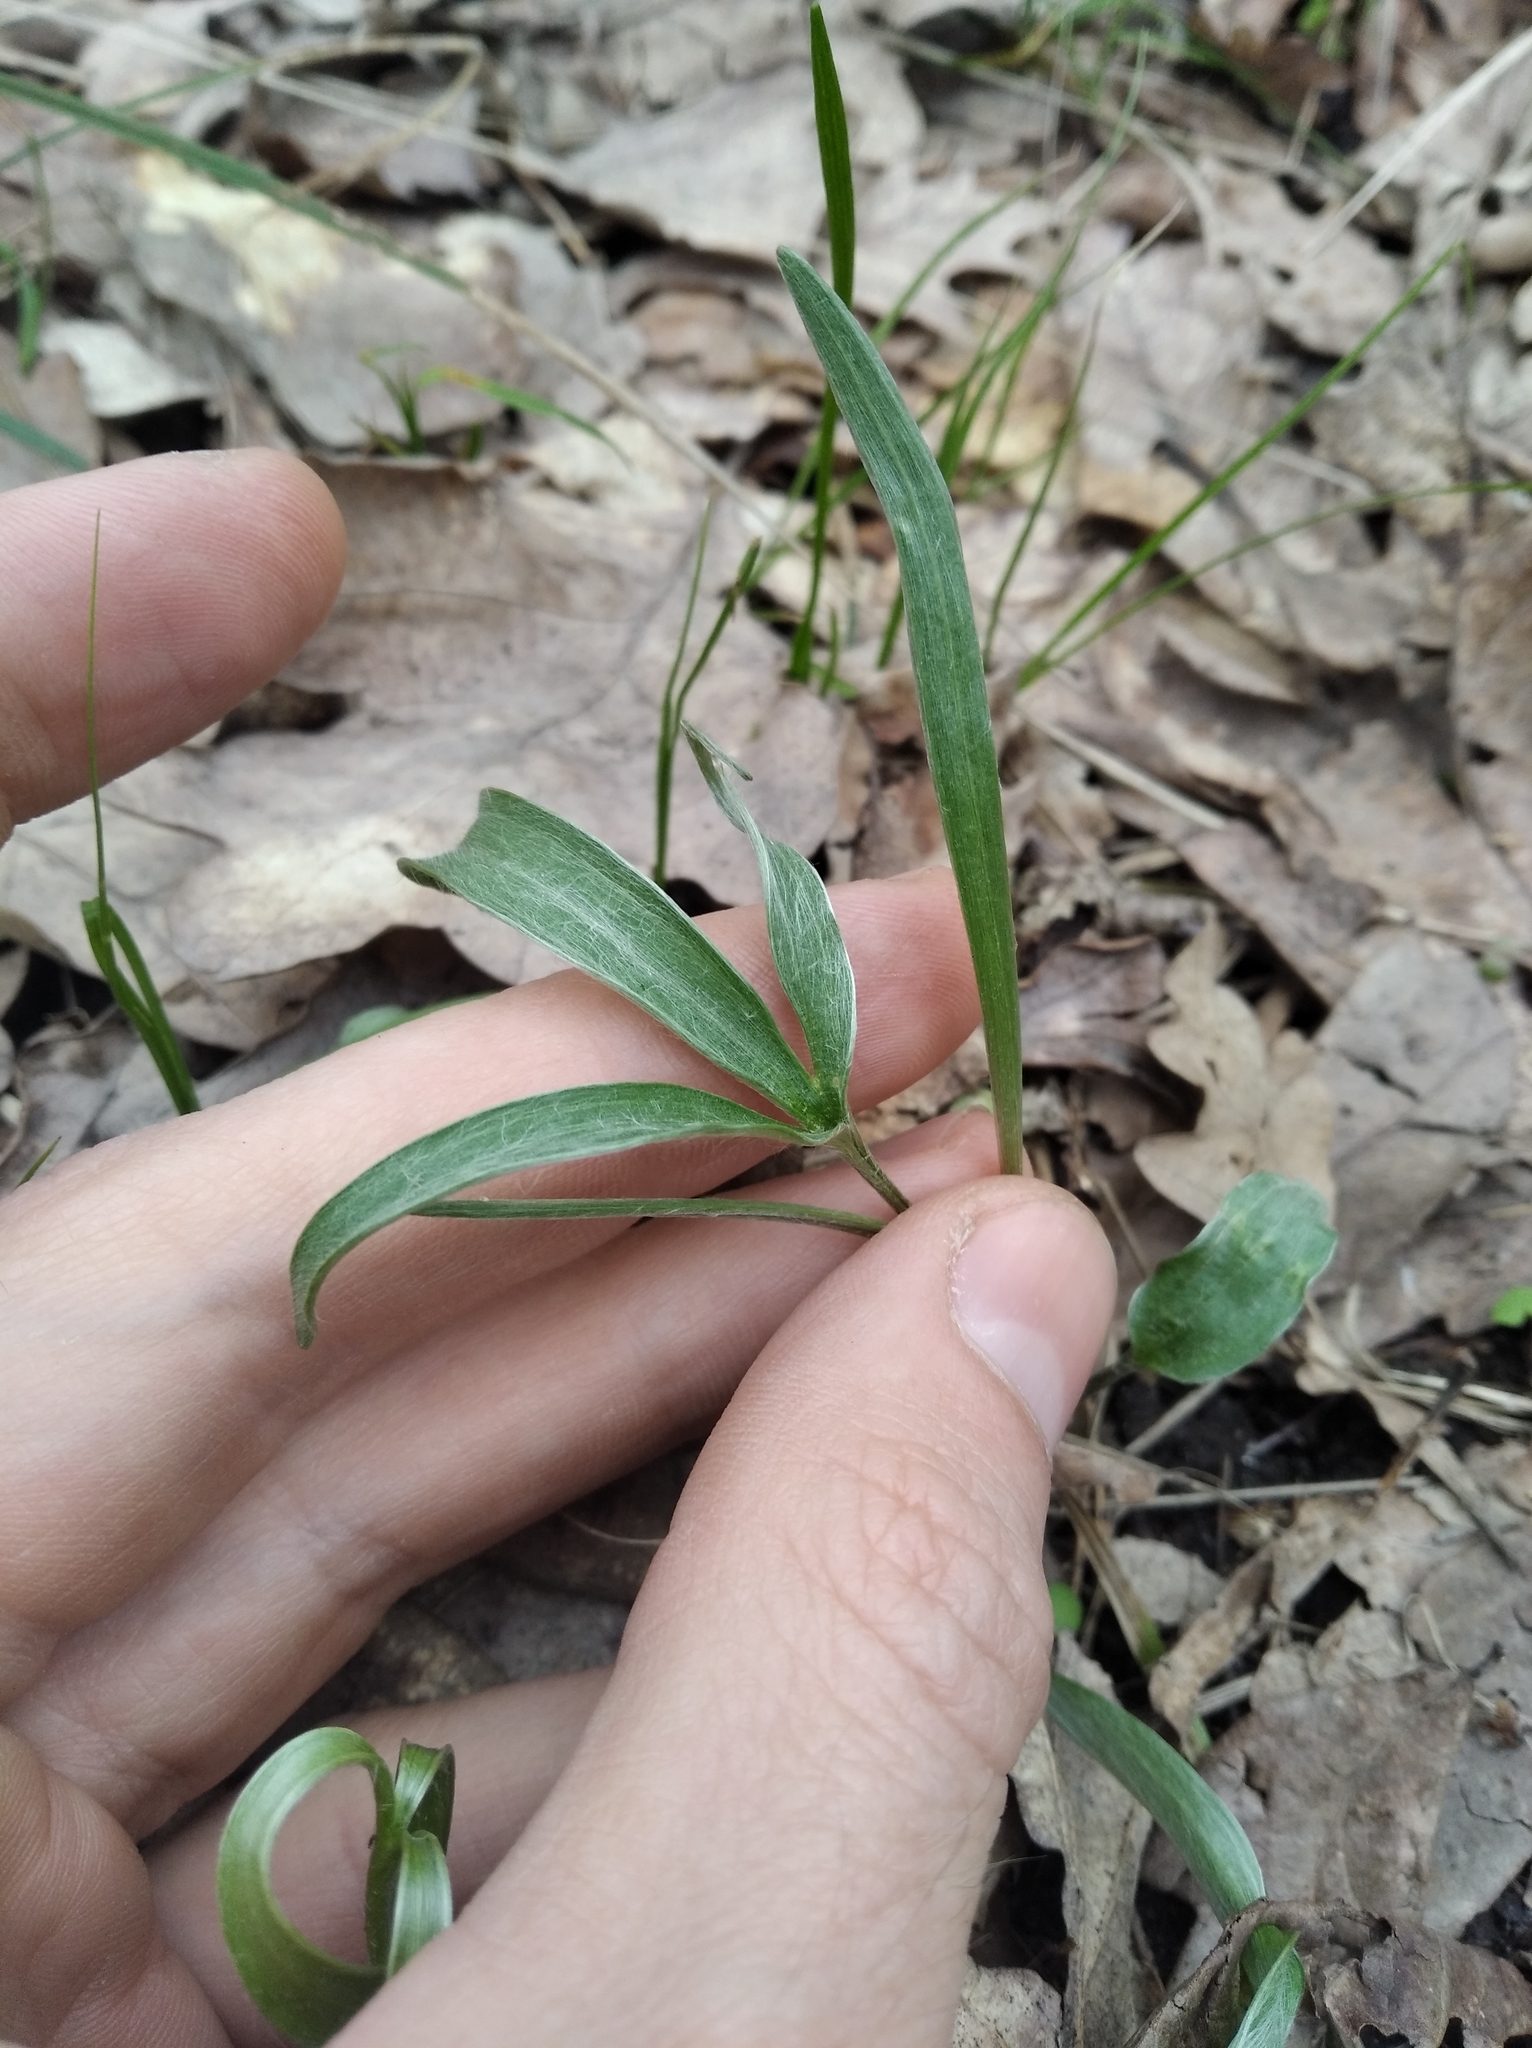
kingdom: Plantae
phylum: Tracheophyta
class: Magnoliopsida
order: Ranunculales
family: Ranunculaceae
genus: Ranunculus
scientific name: Ranunculus illyricus
